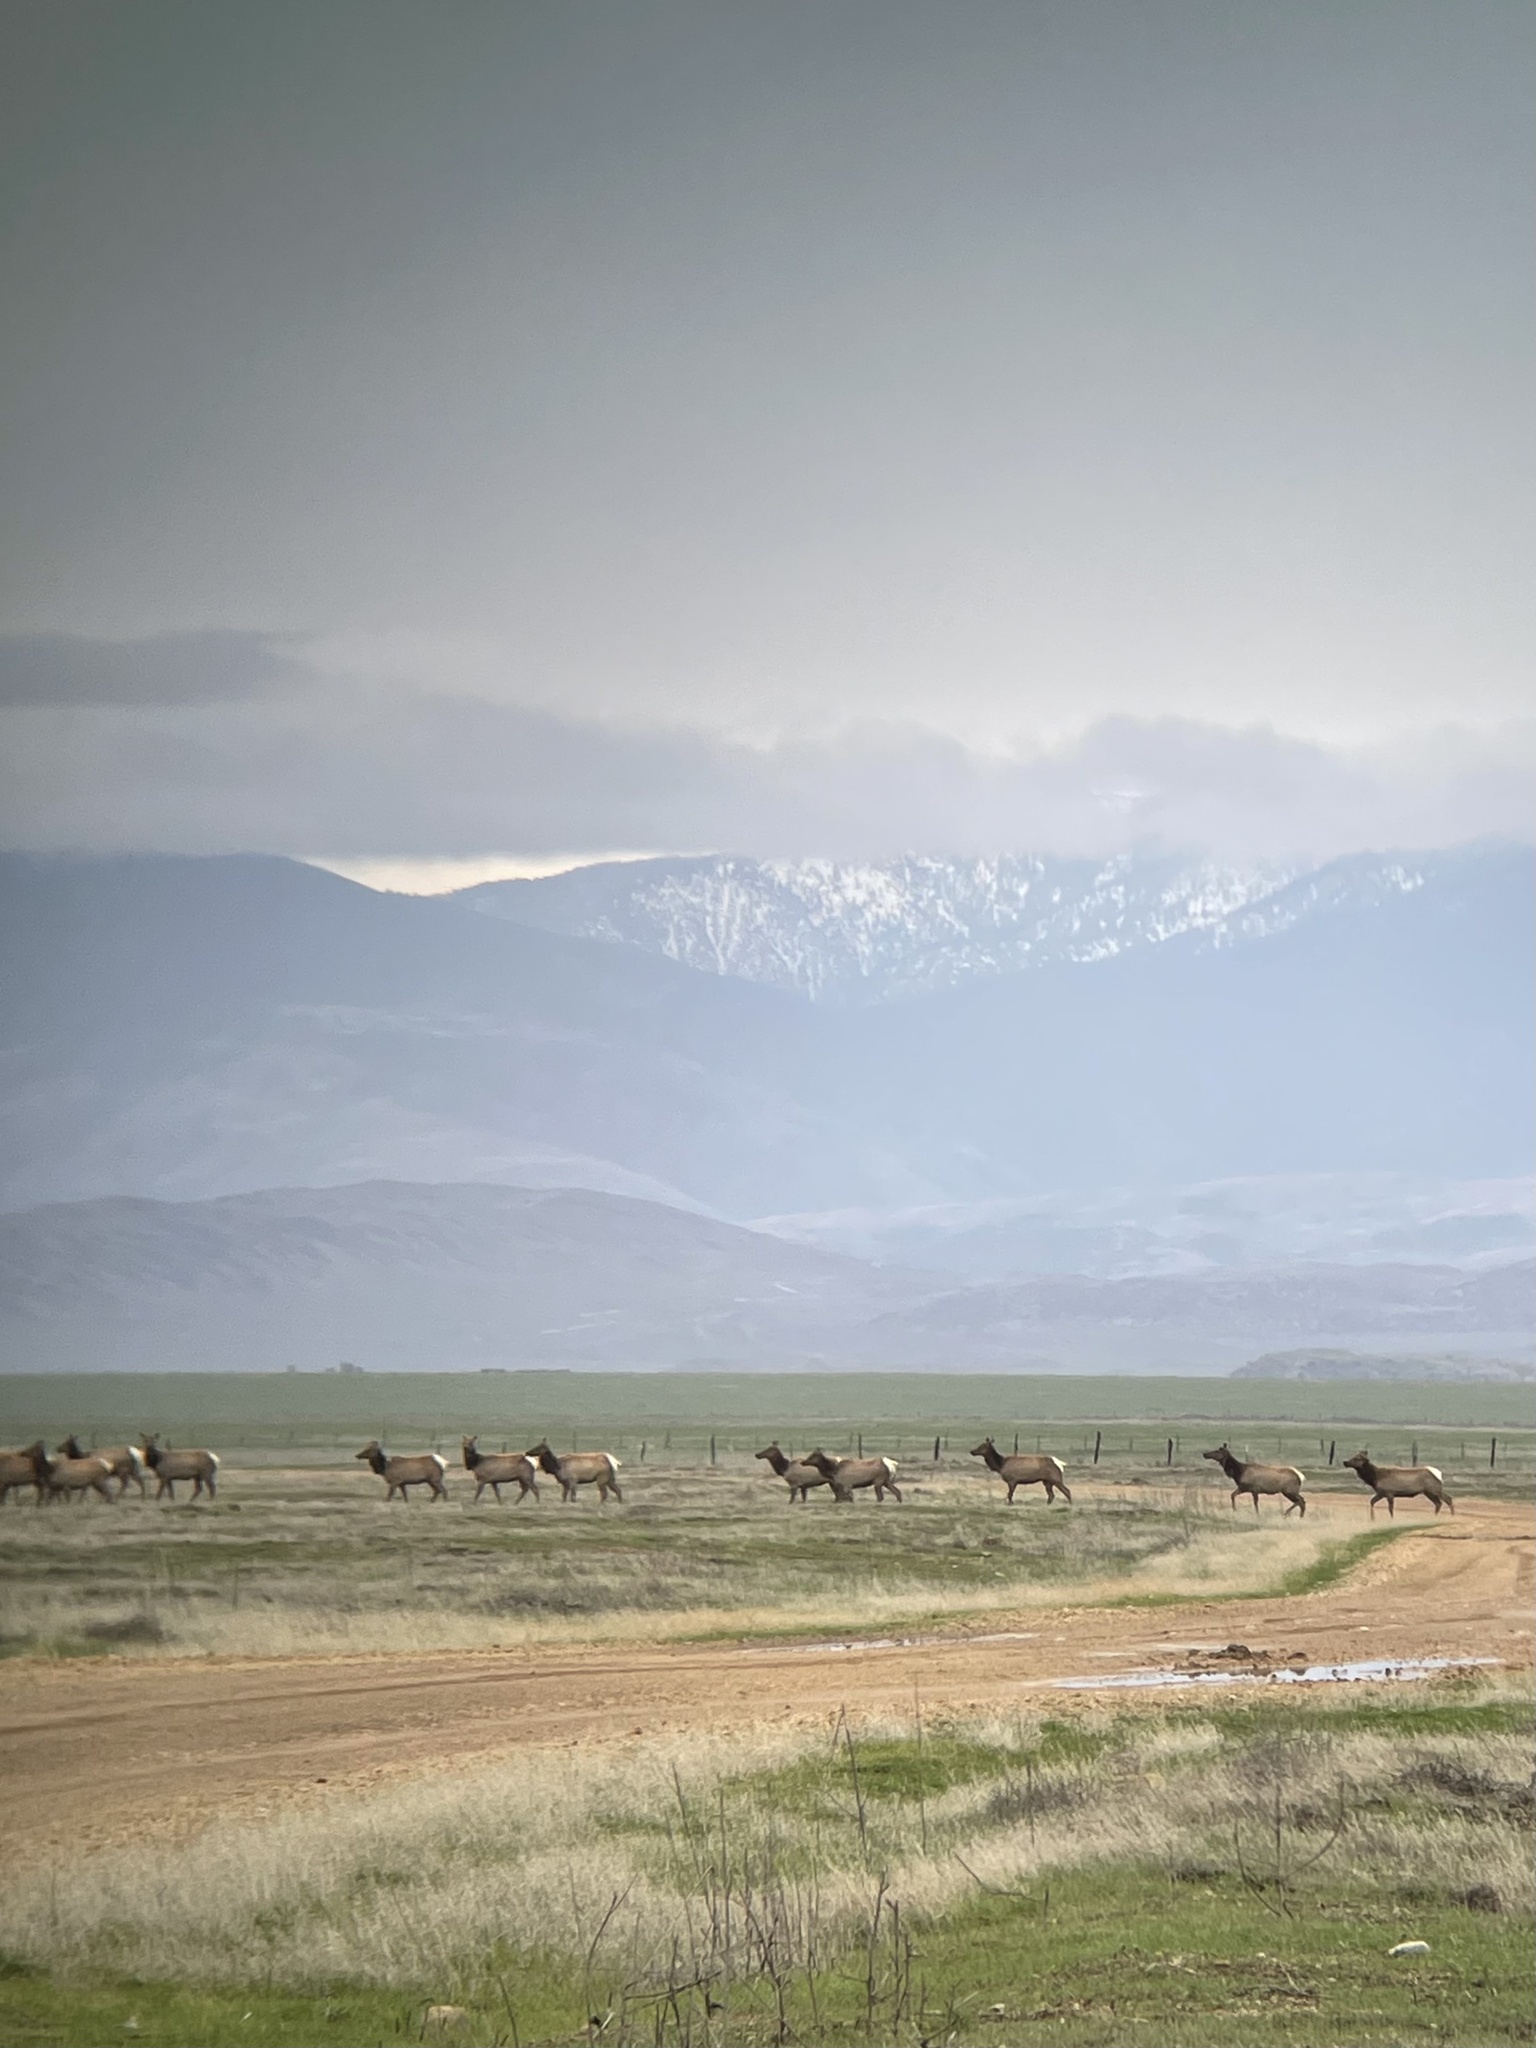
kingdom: Animalia
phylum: Chordata
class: Mammalia
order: Artiodactyla
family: Cervidae
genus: Cervus
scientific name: Cervus elaphus
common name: Red deer
